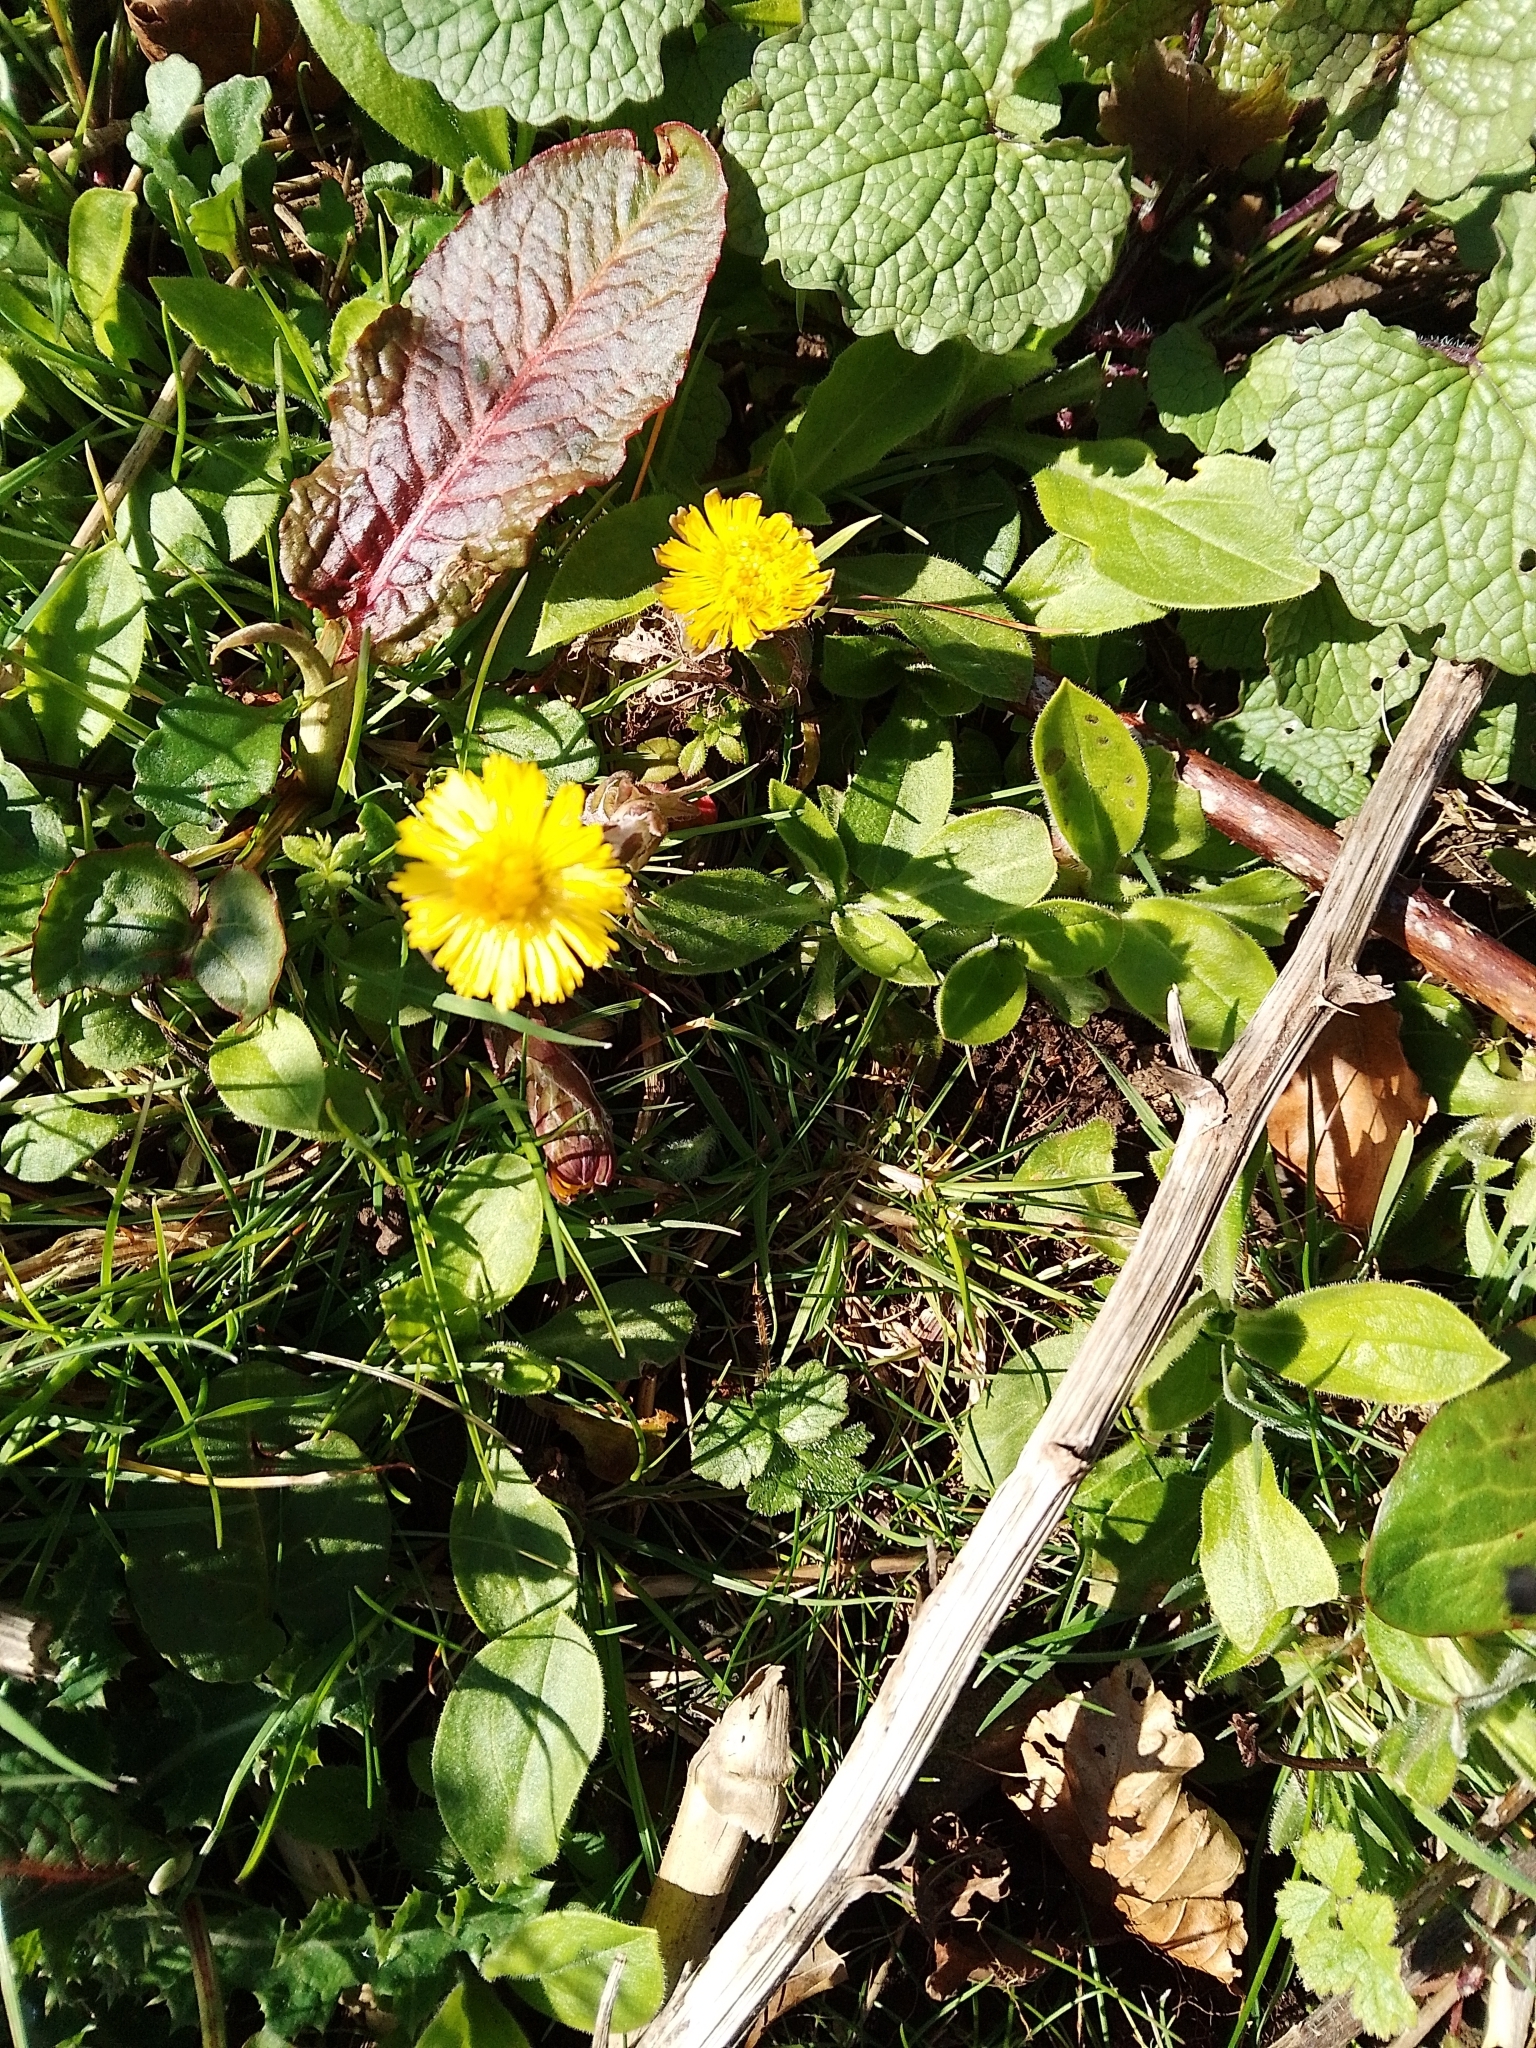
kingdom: Plantae
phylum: Tracheophyta
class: Magnoliopsida
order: Asterales
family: Asteraceae
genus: Tussilago
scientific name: Tussilago farfara
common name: Coltsfoot
